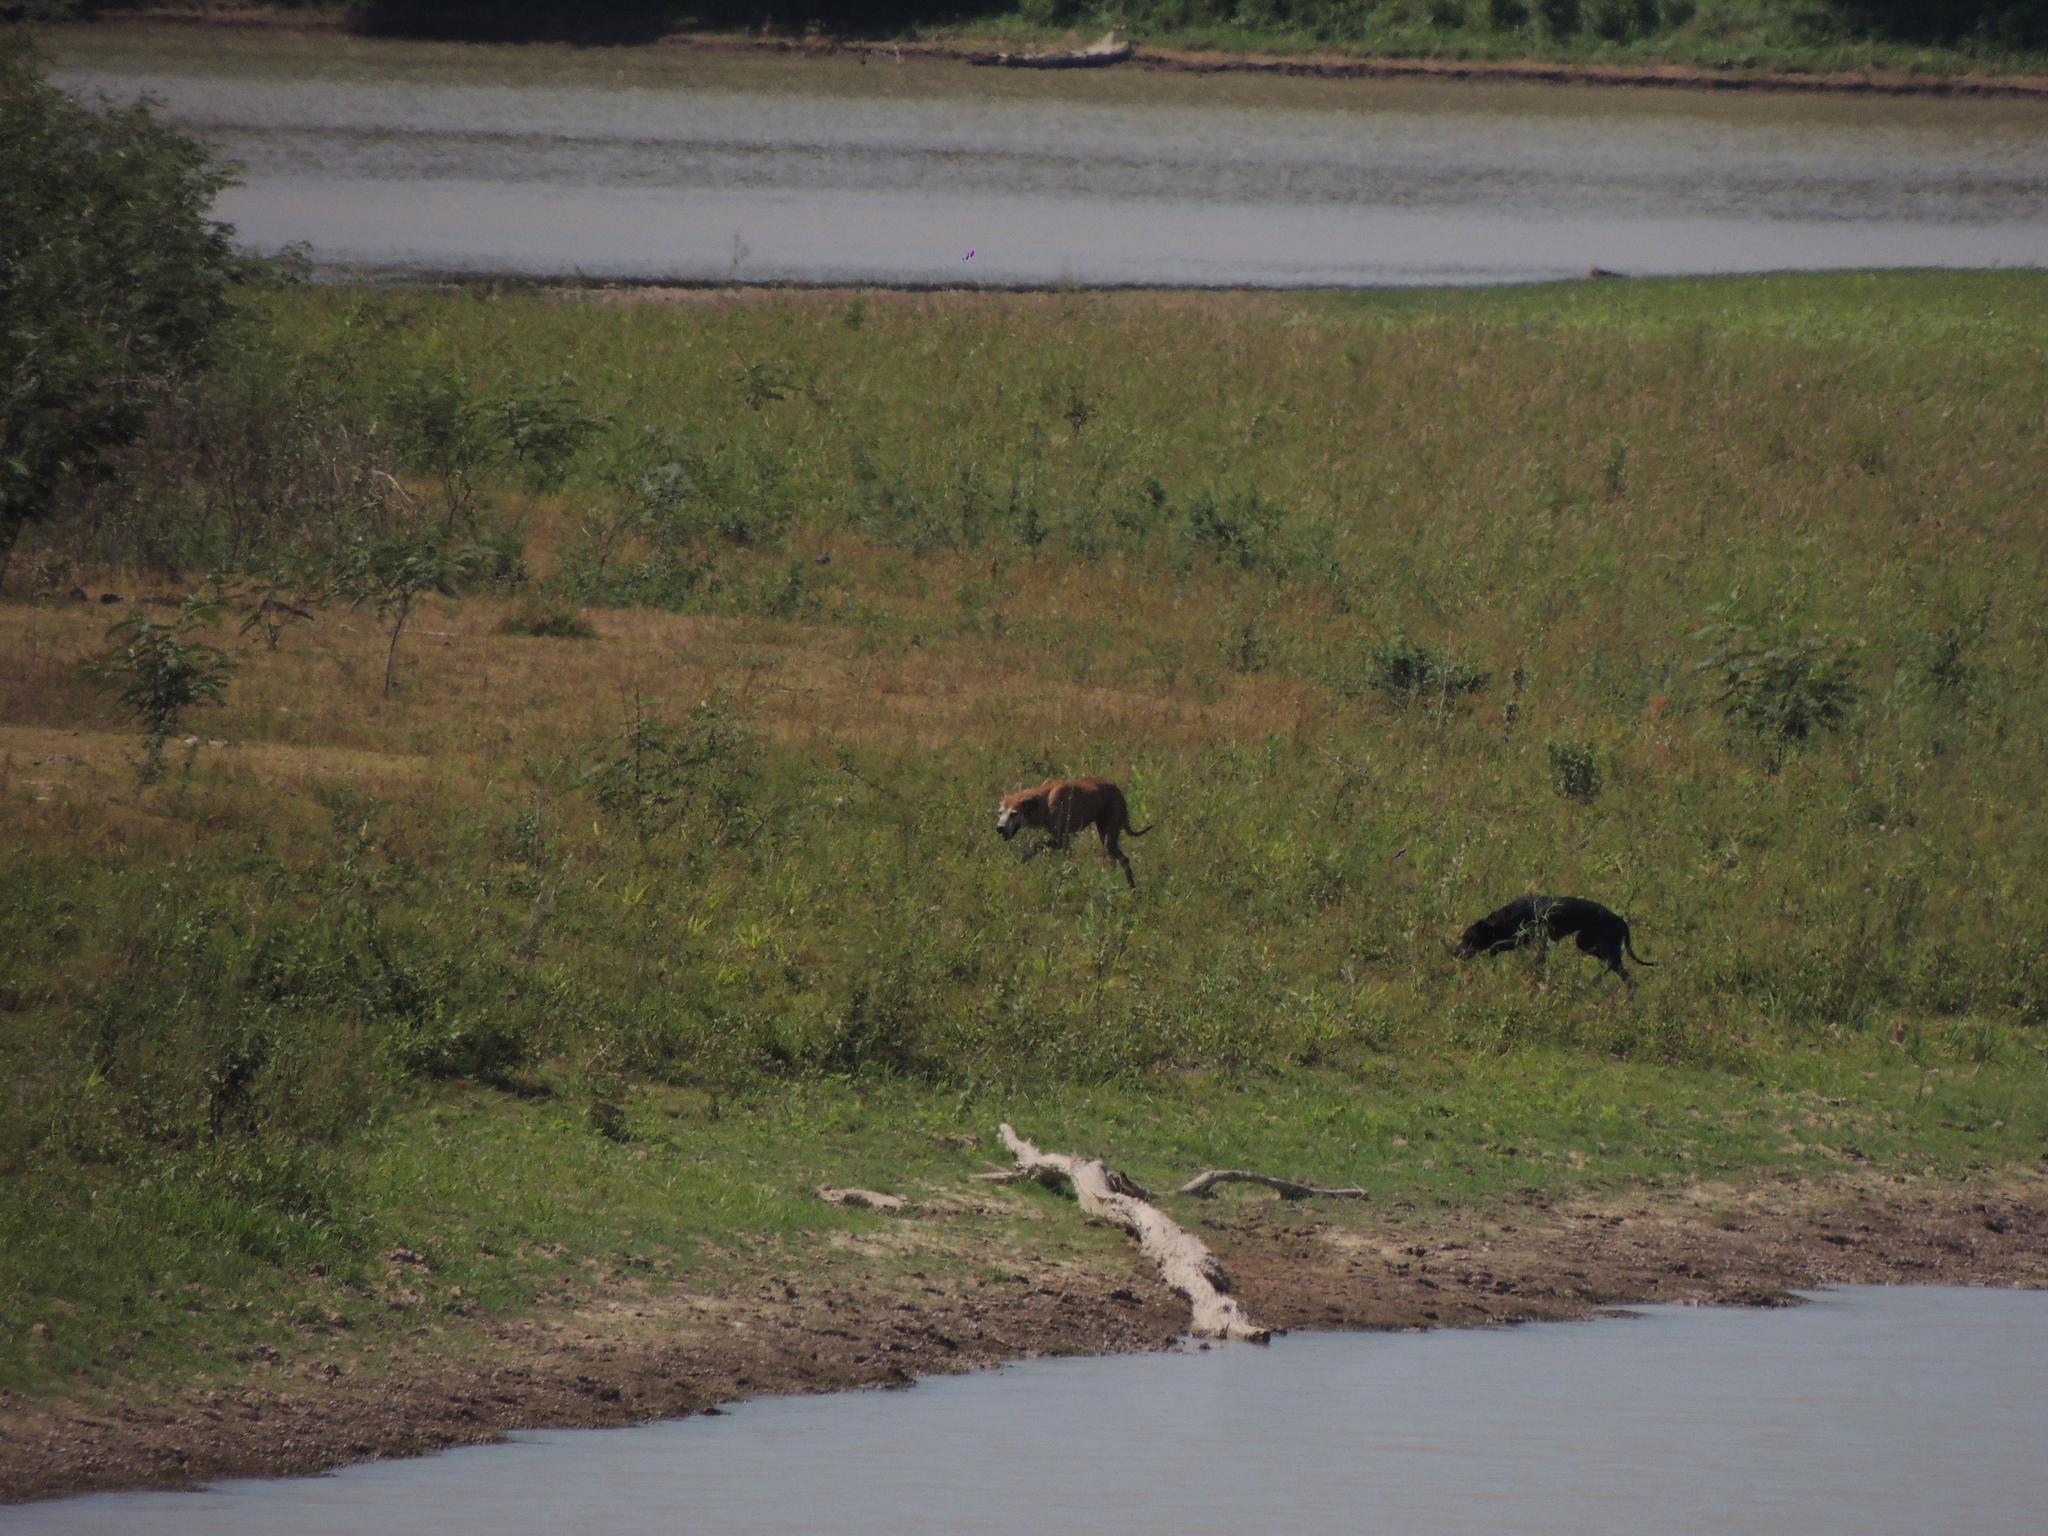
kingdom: Animalia
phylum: Chordata
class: Mammalia
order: Carnivora
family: Canidae
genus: Canis
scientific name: Canis lupus
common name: Gray wolf
